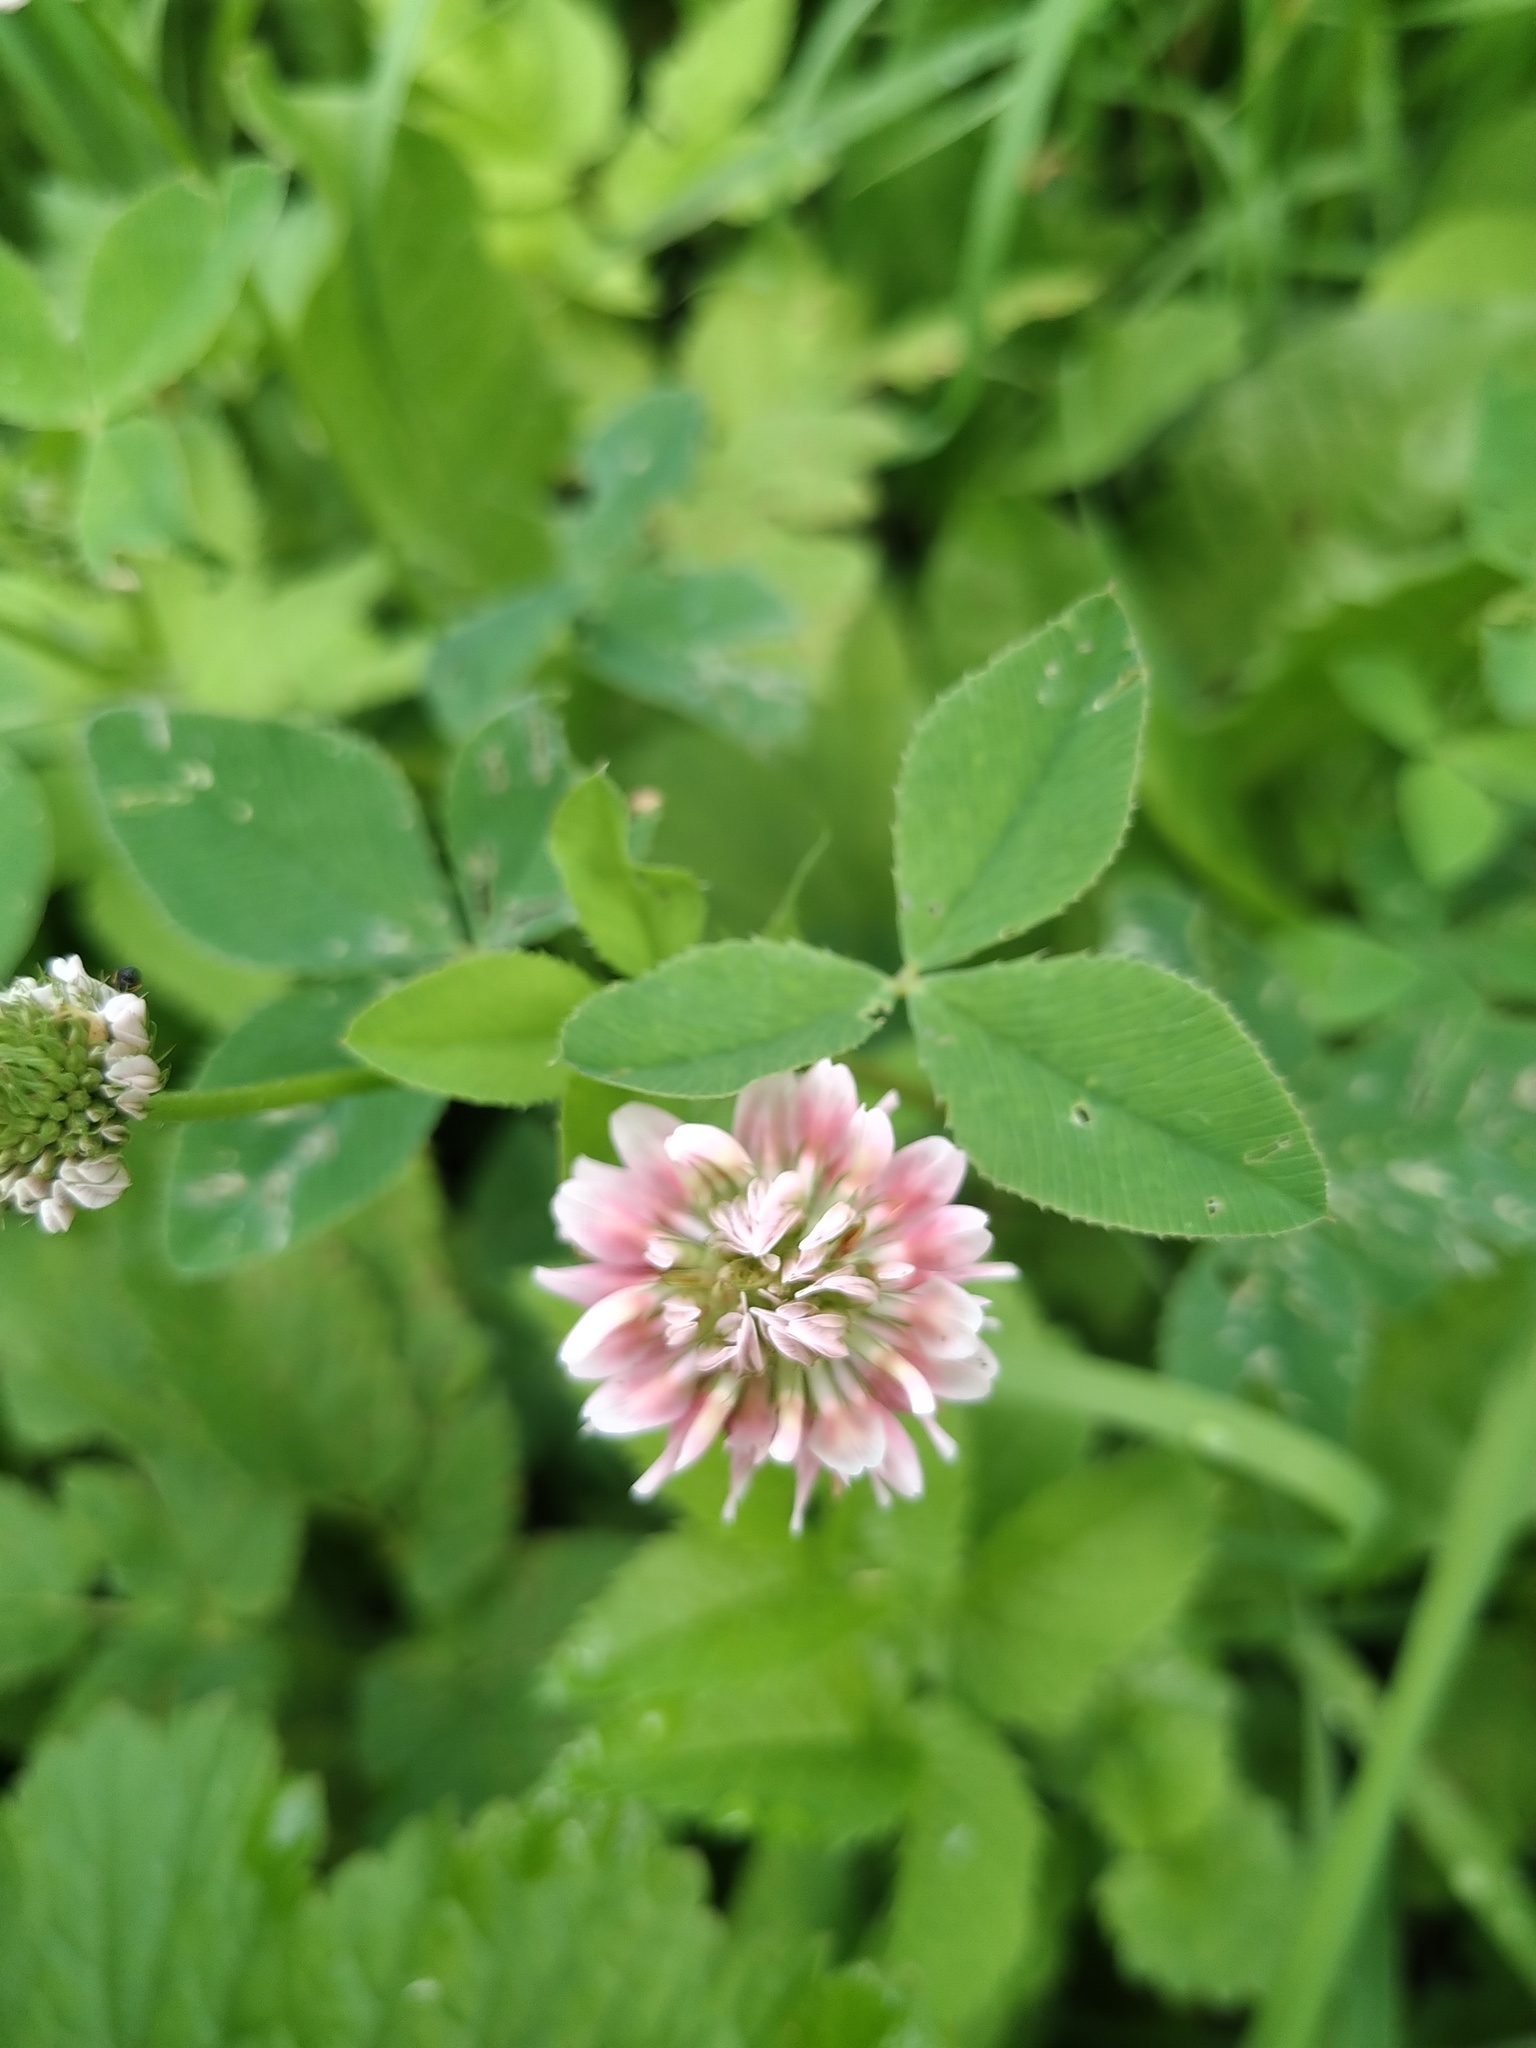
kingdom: Plantae
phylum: Tracheophyta
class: Magnoliopsida
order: Fabales
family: Fabaceae
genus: Trifolium
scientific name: Trifolium hybridum
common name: Alsike clover
